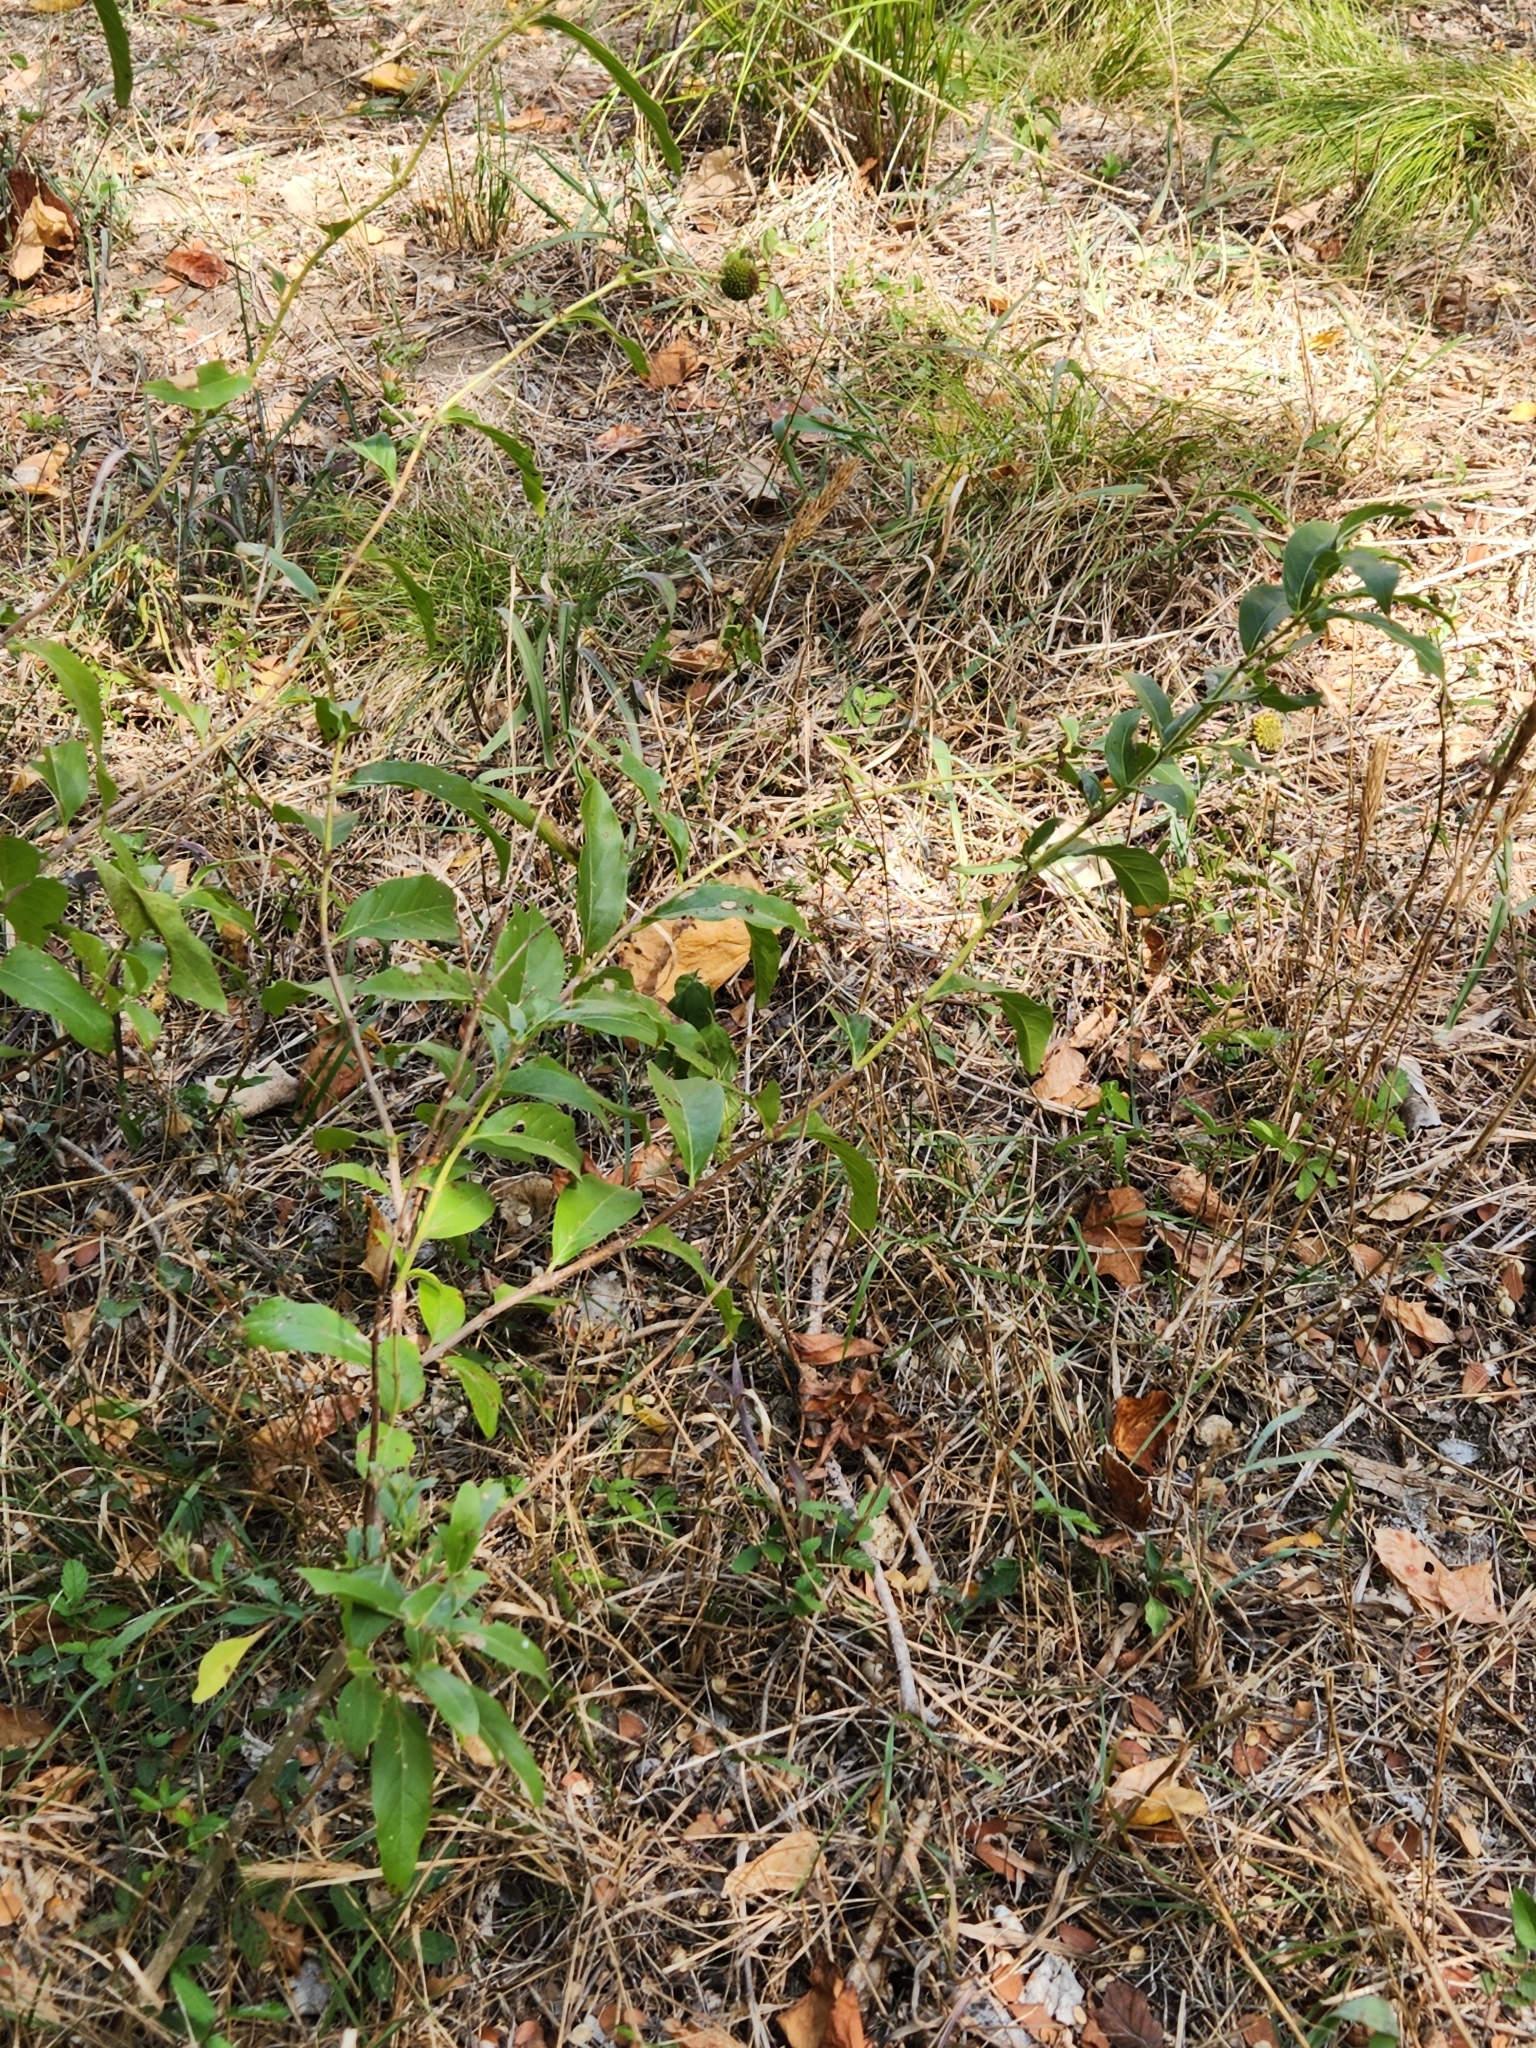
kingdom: Plantae
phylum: Tracheophyta
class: Magnoliopsida
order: Gentianales
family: Rubiaceae
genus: Cephalanthus
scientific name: Cephalanthus occidentalis
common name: Button-willow
